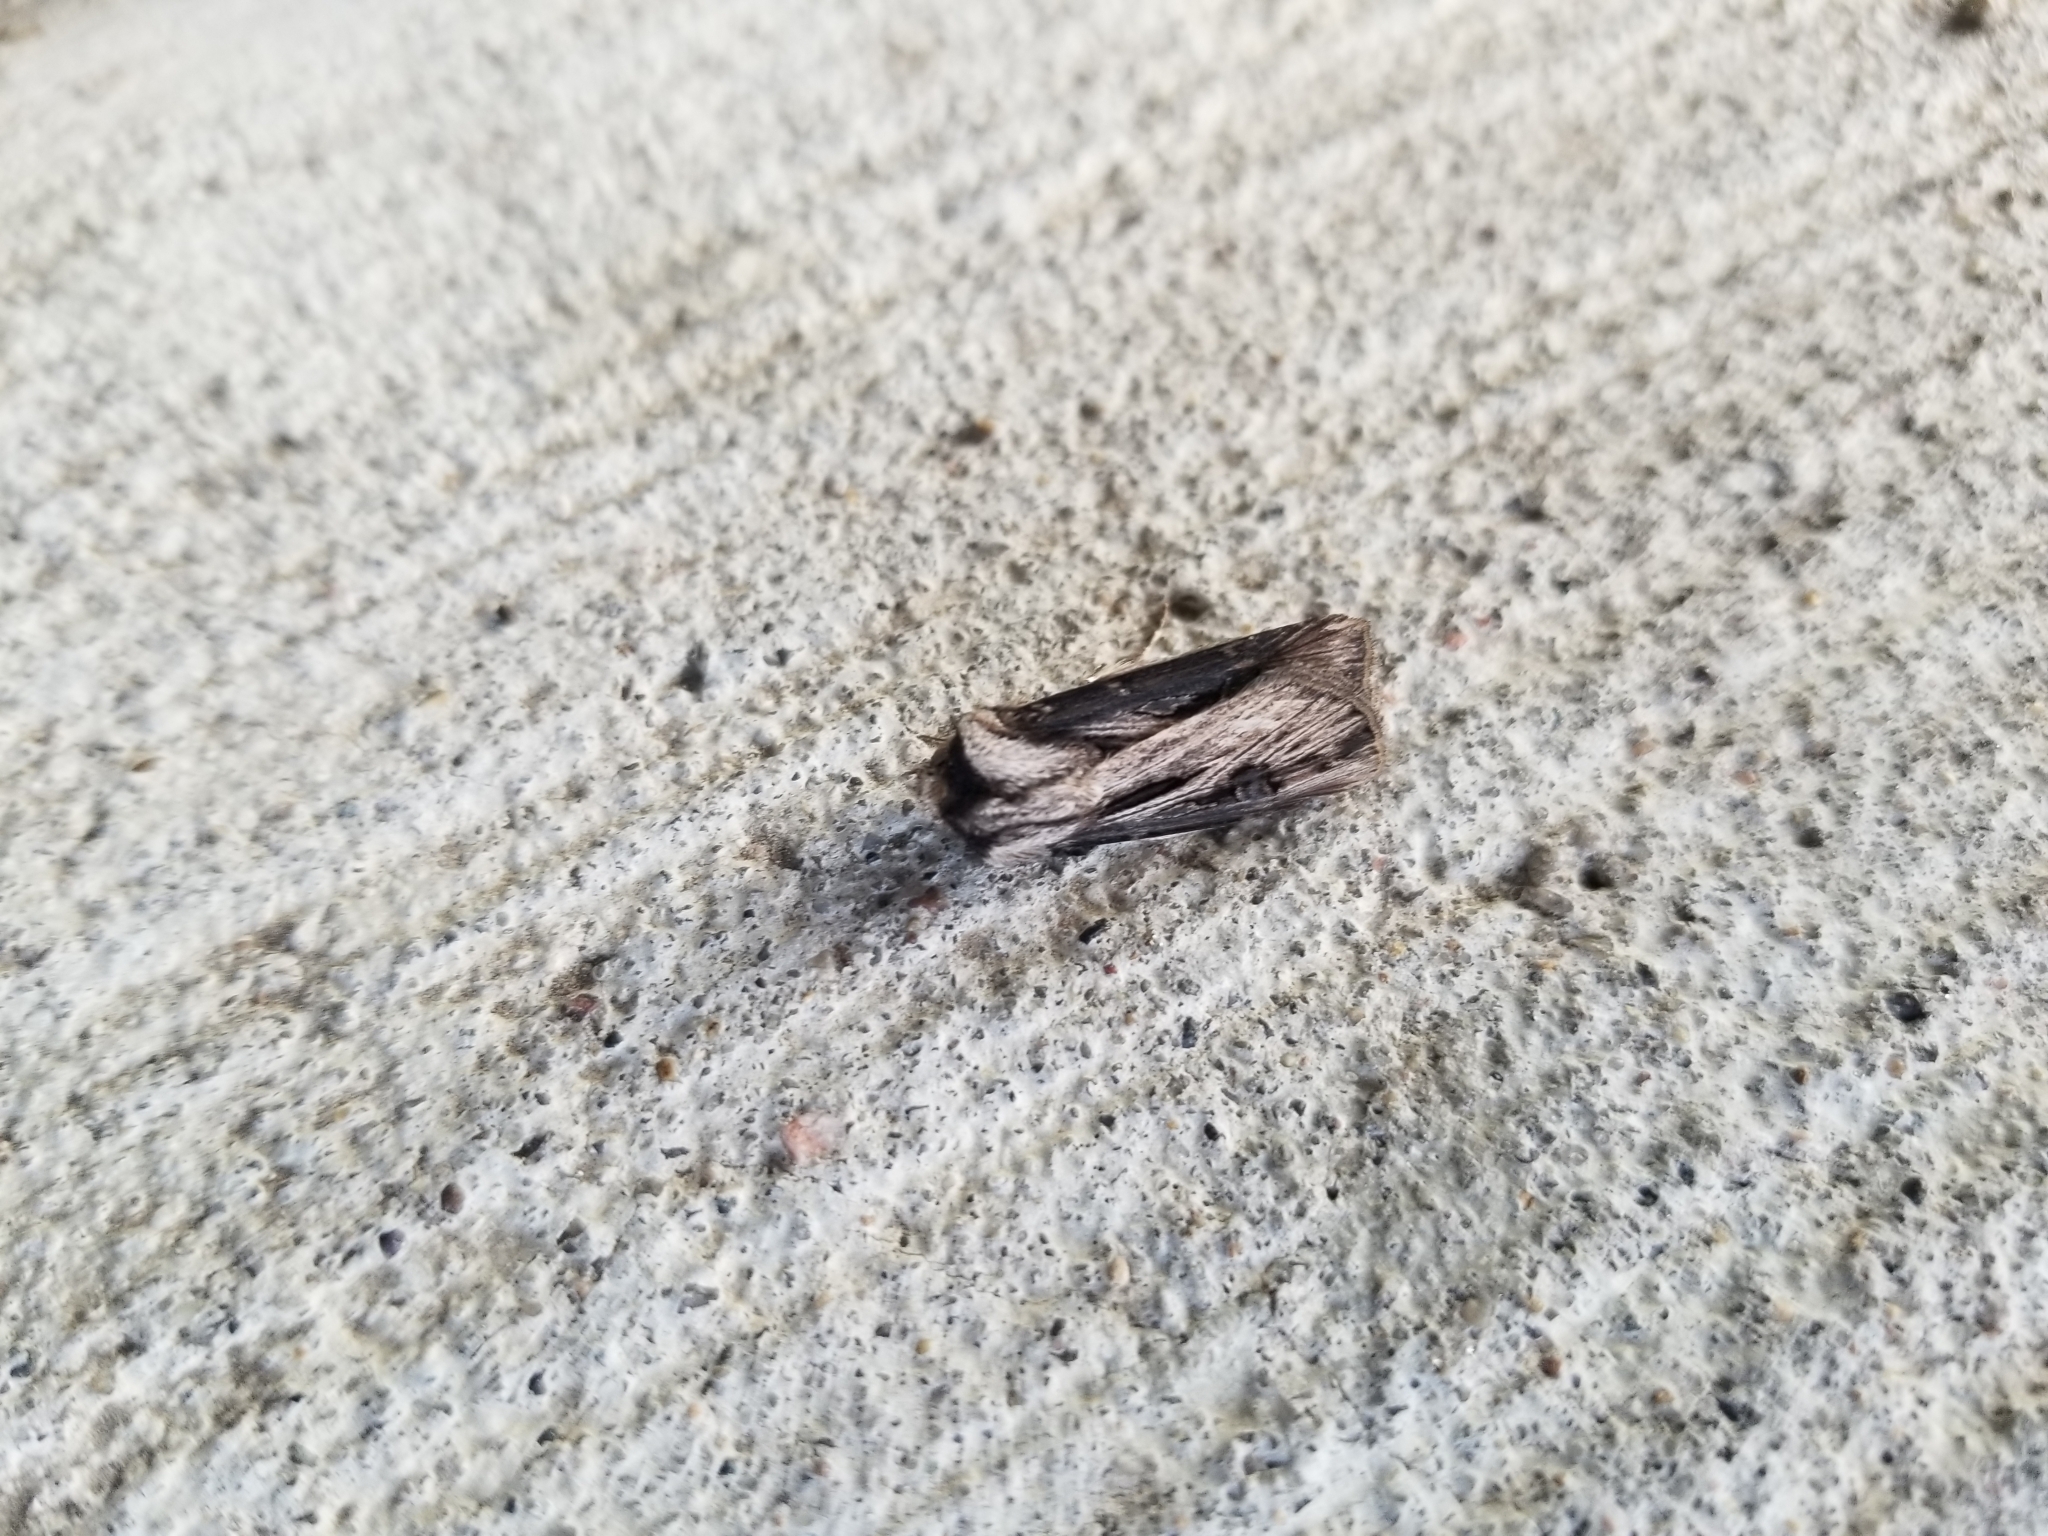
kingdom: Animalia
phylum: Arthropoda
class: Insecta
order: Lepidoptera
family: Noctuidae
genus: Agrotis
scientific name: Agrotis venerabilis
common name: Venerable dart
